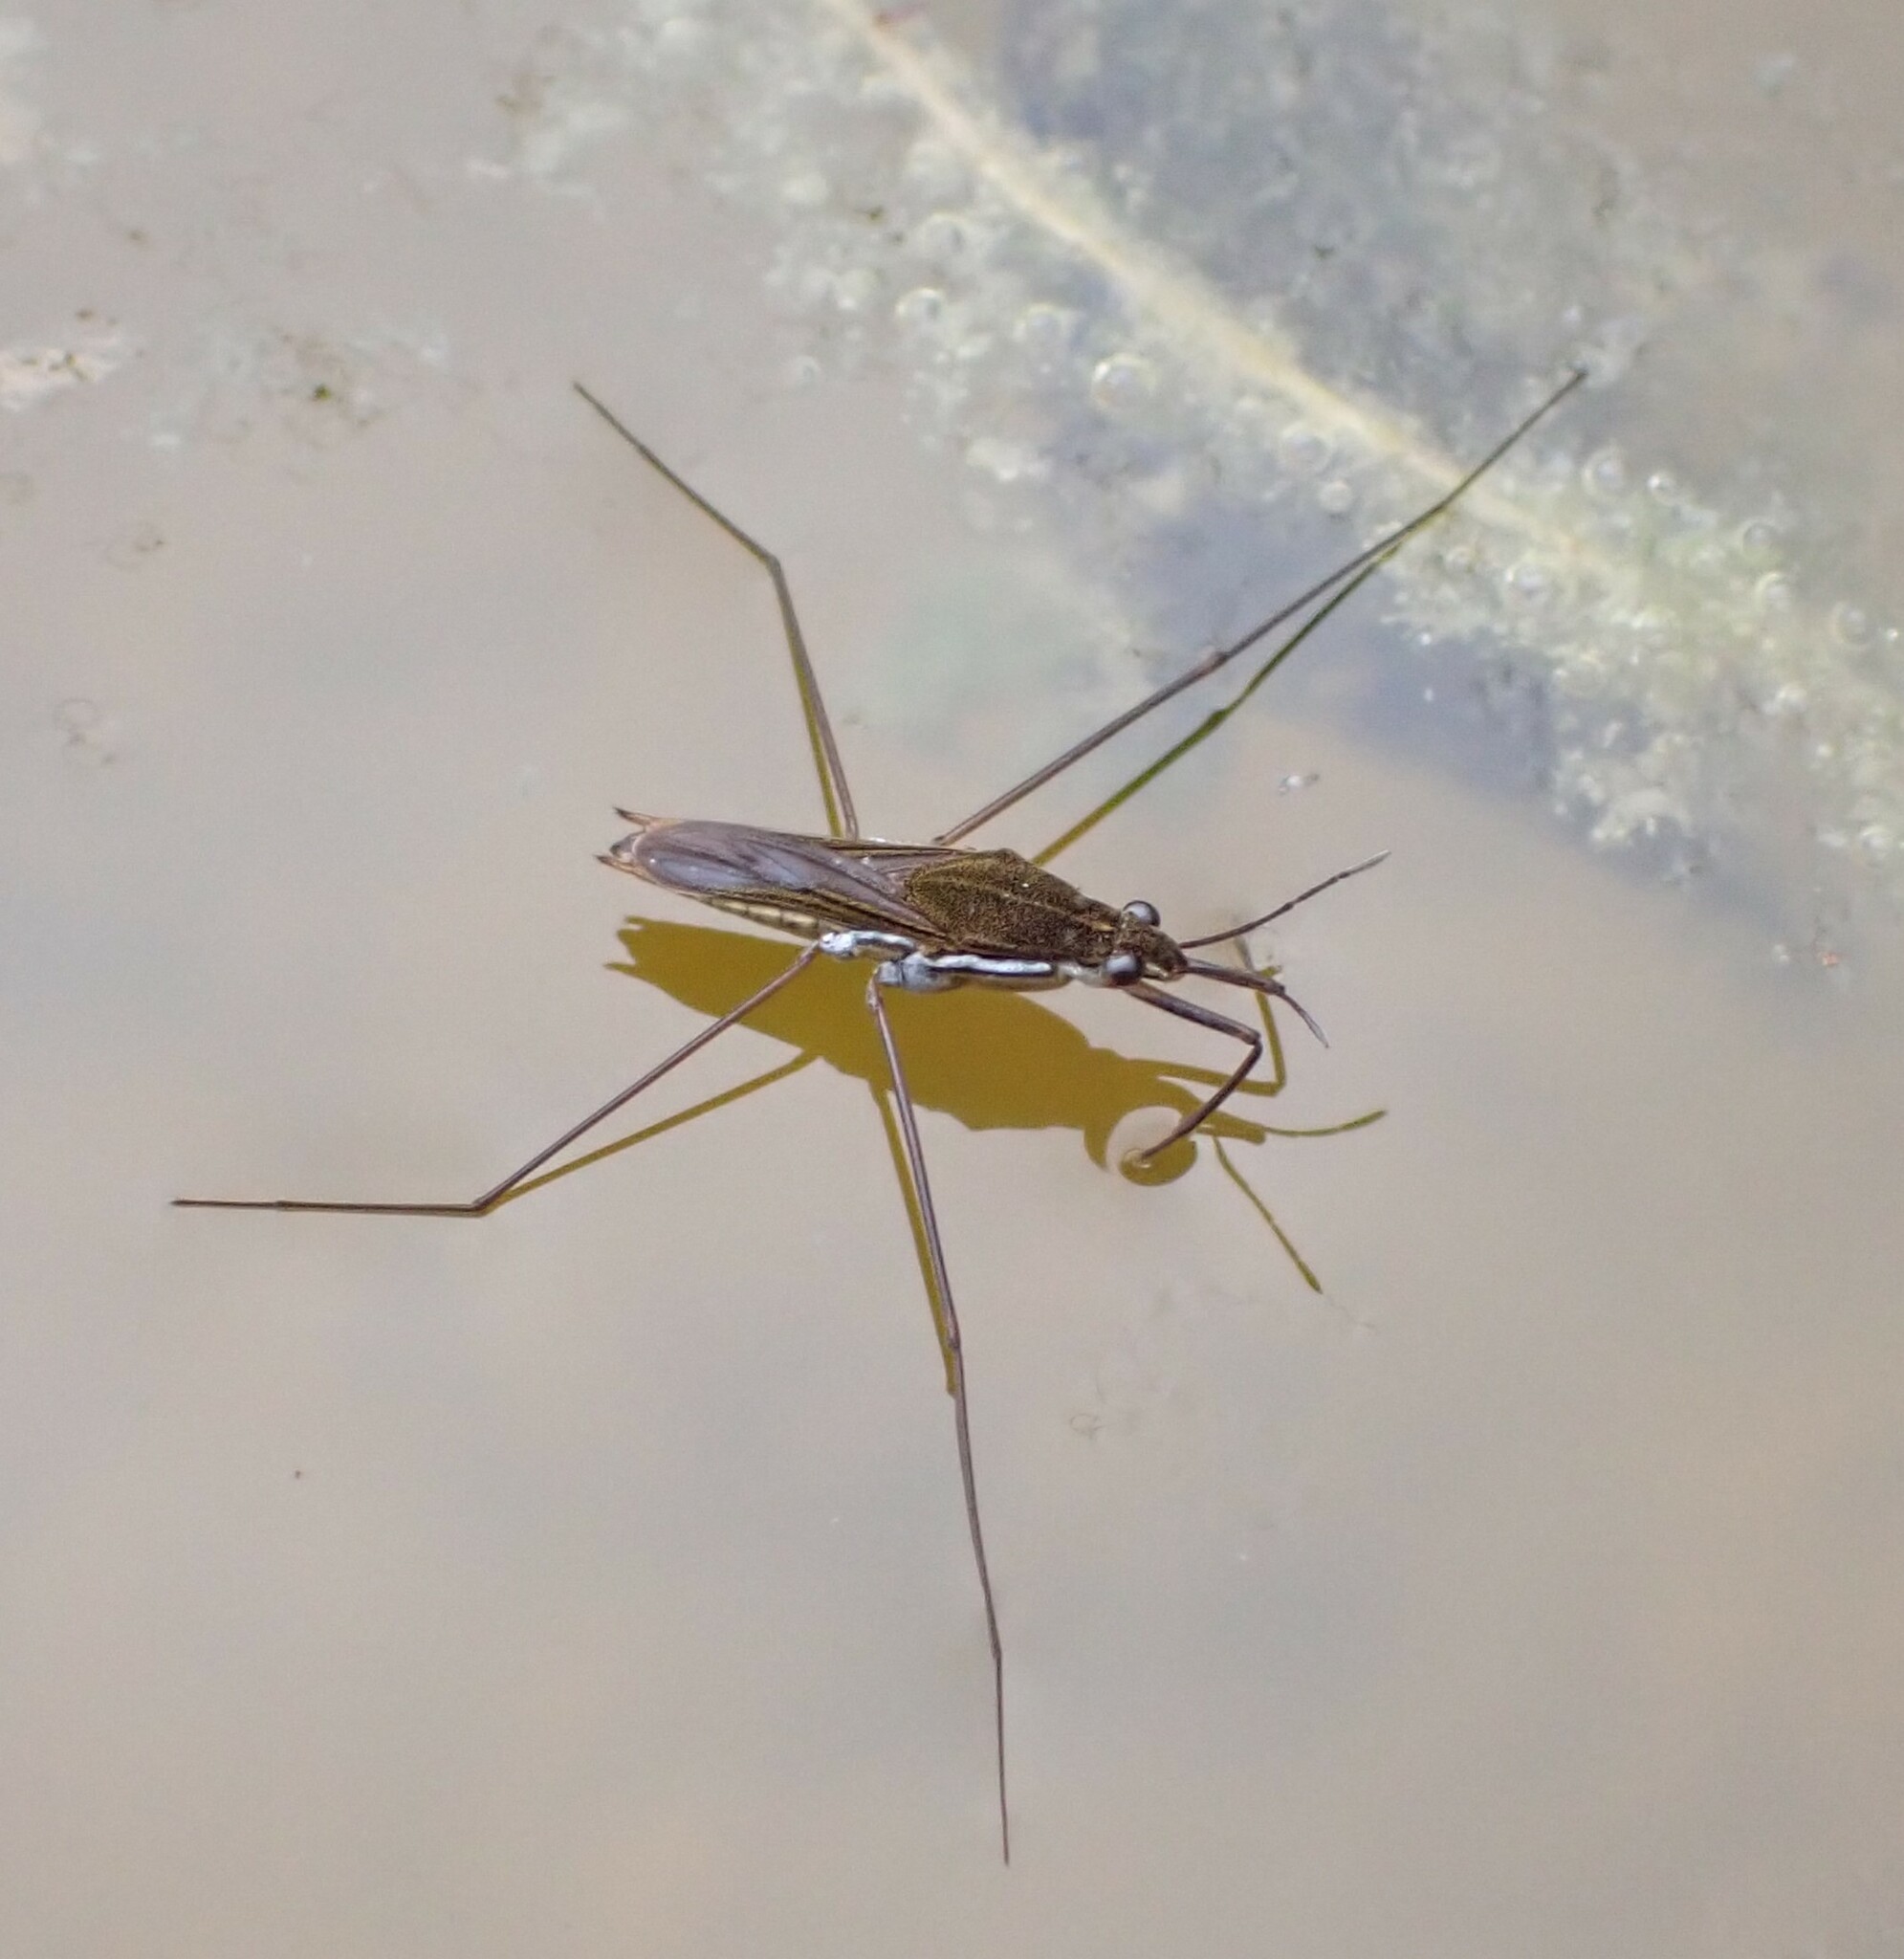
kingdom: Animalia
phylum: Arthropoda
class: Insecta
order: Hemiptera
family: Gerridae
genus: Gerris
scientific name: Gerris swakopensis
